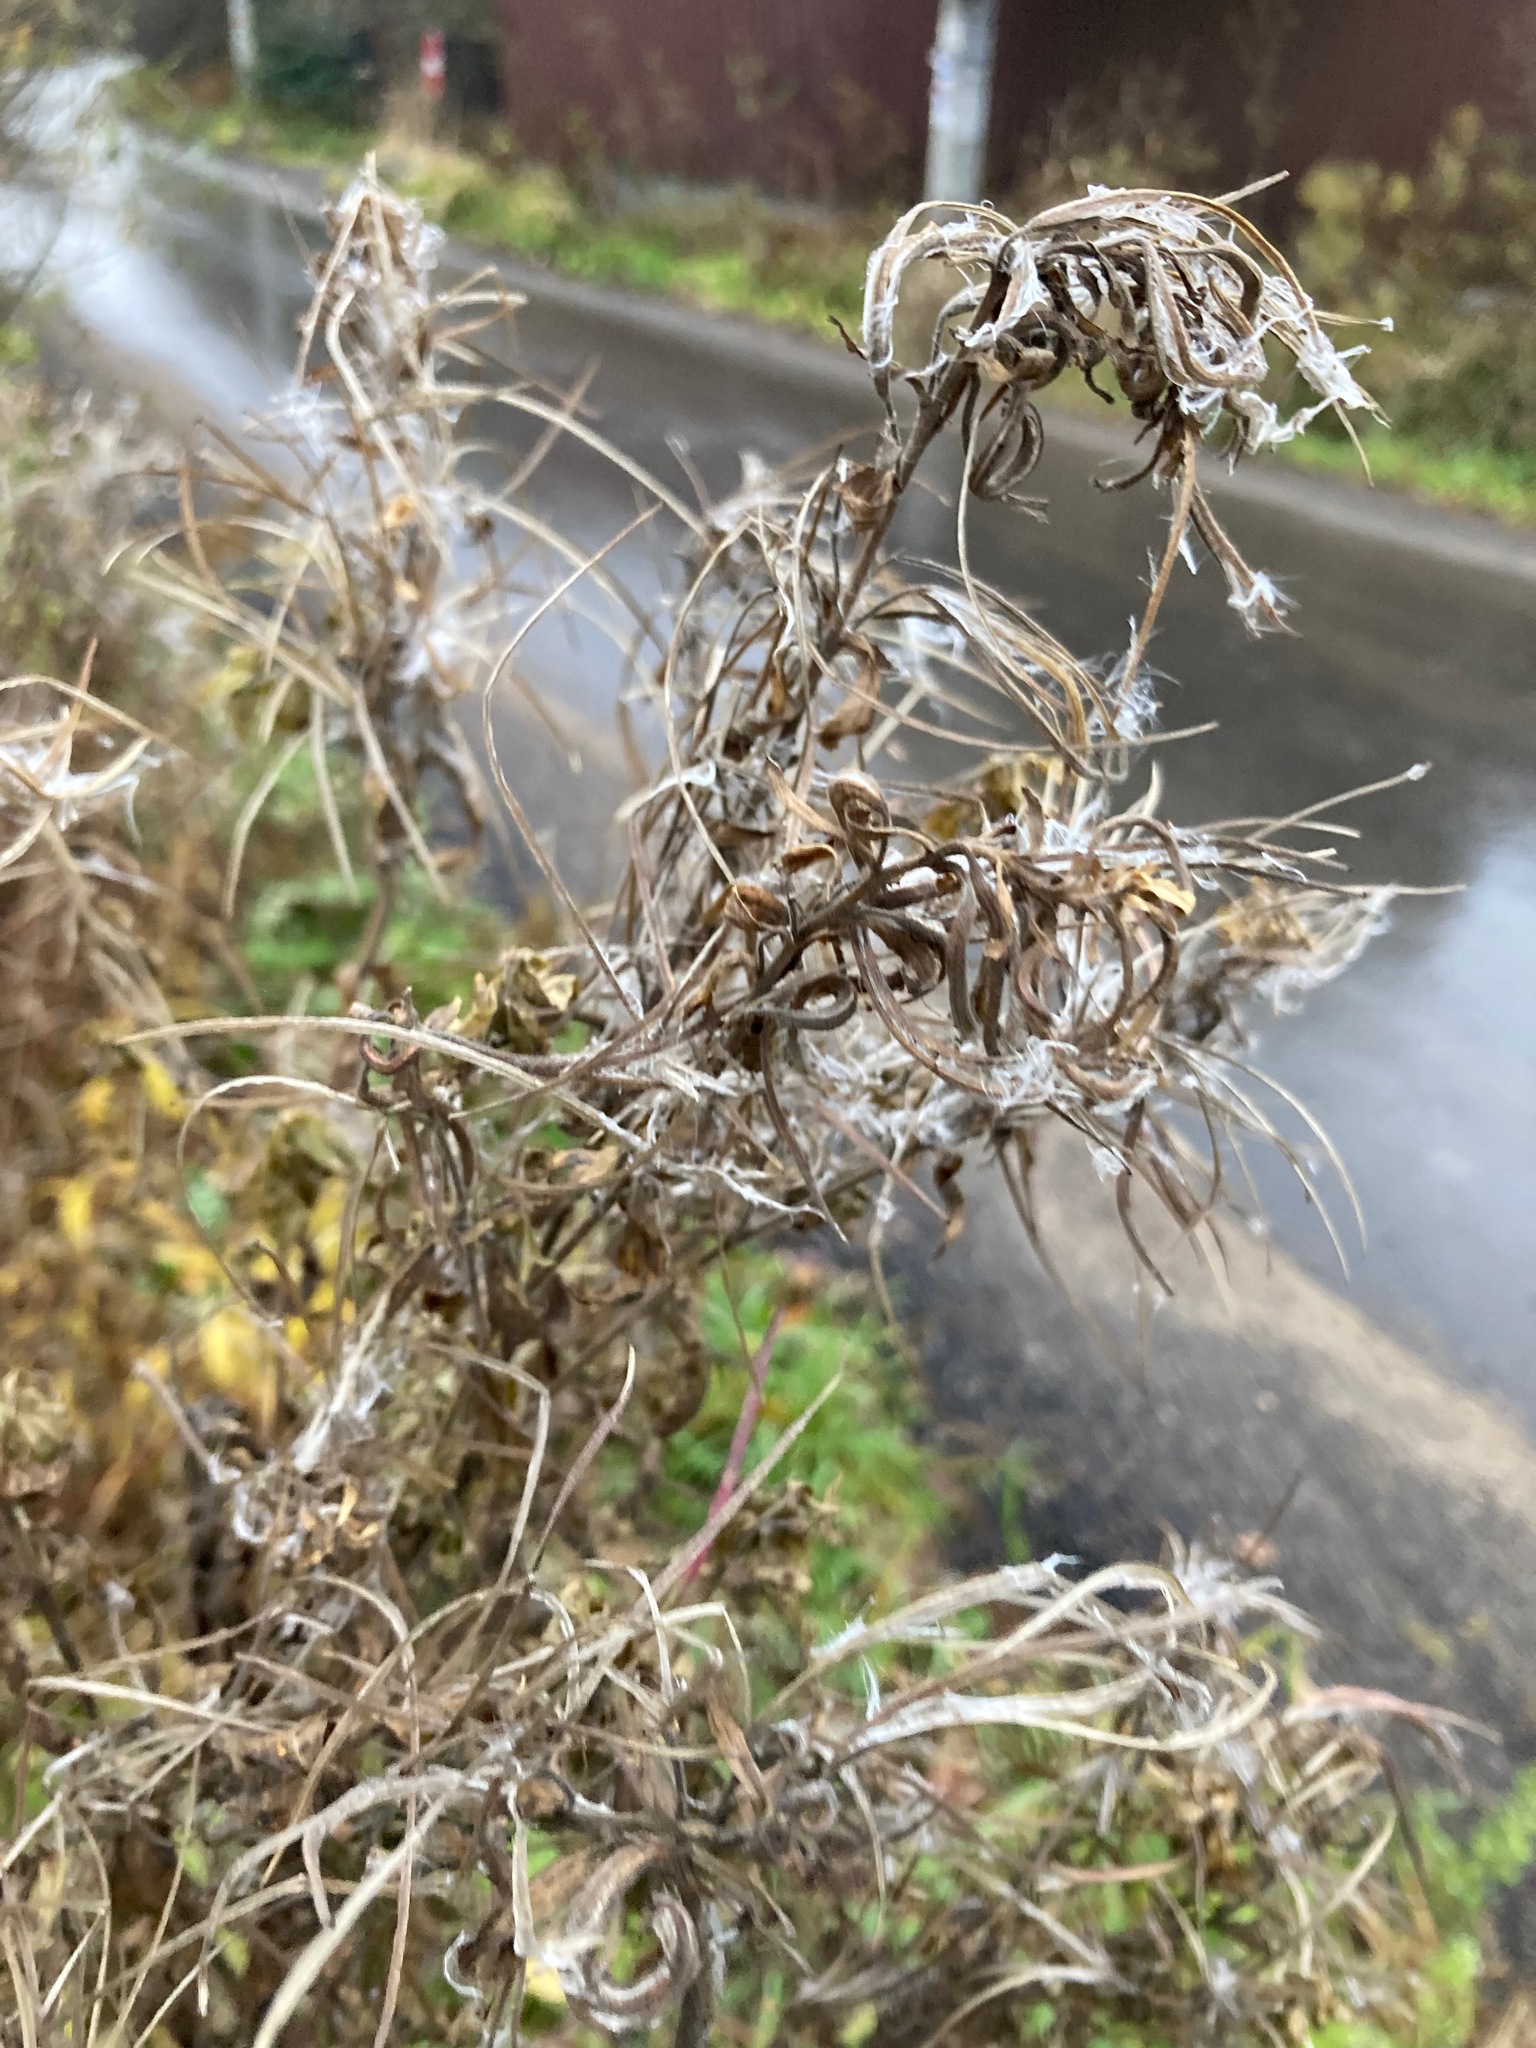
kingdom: Plantae
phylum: Tracheophyta
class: Magnoliopsida
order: Myrtales
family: Onagraceae
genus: Epilobium
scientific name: Epilobium hirsutum
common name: Great willowherb
